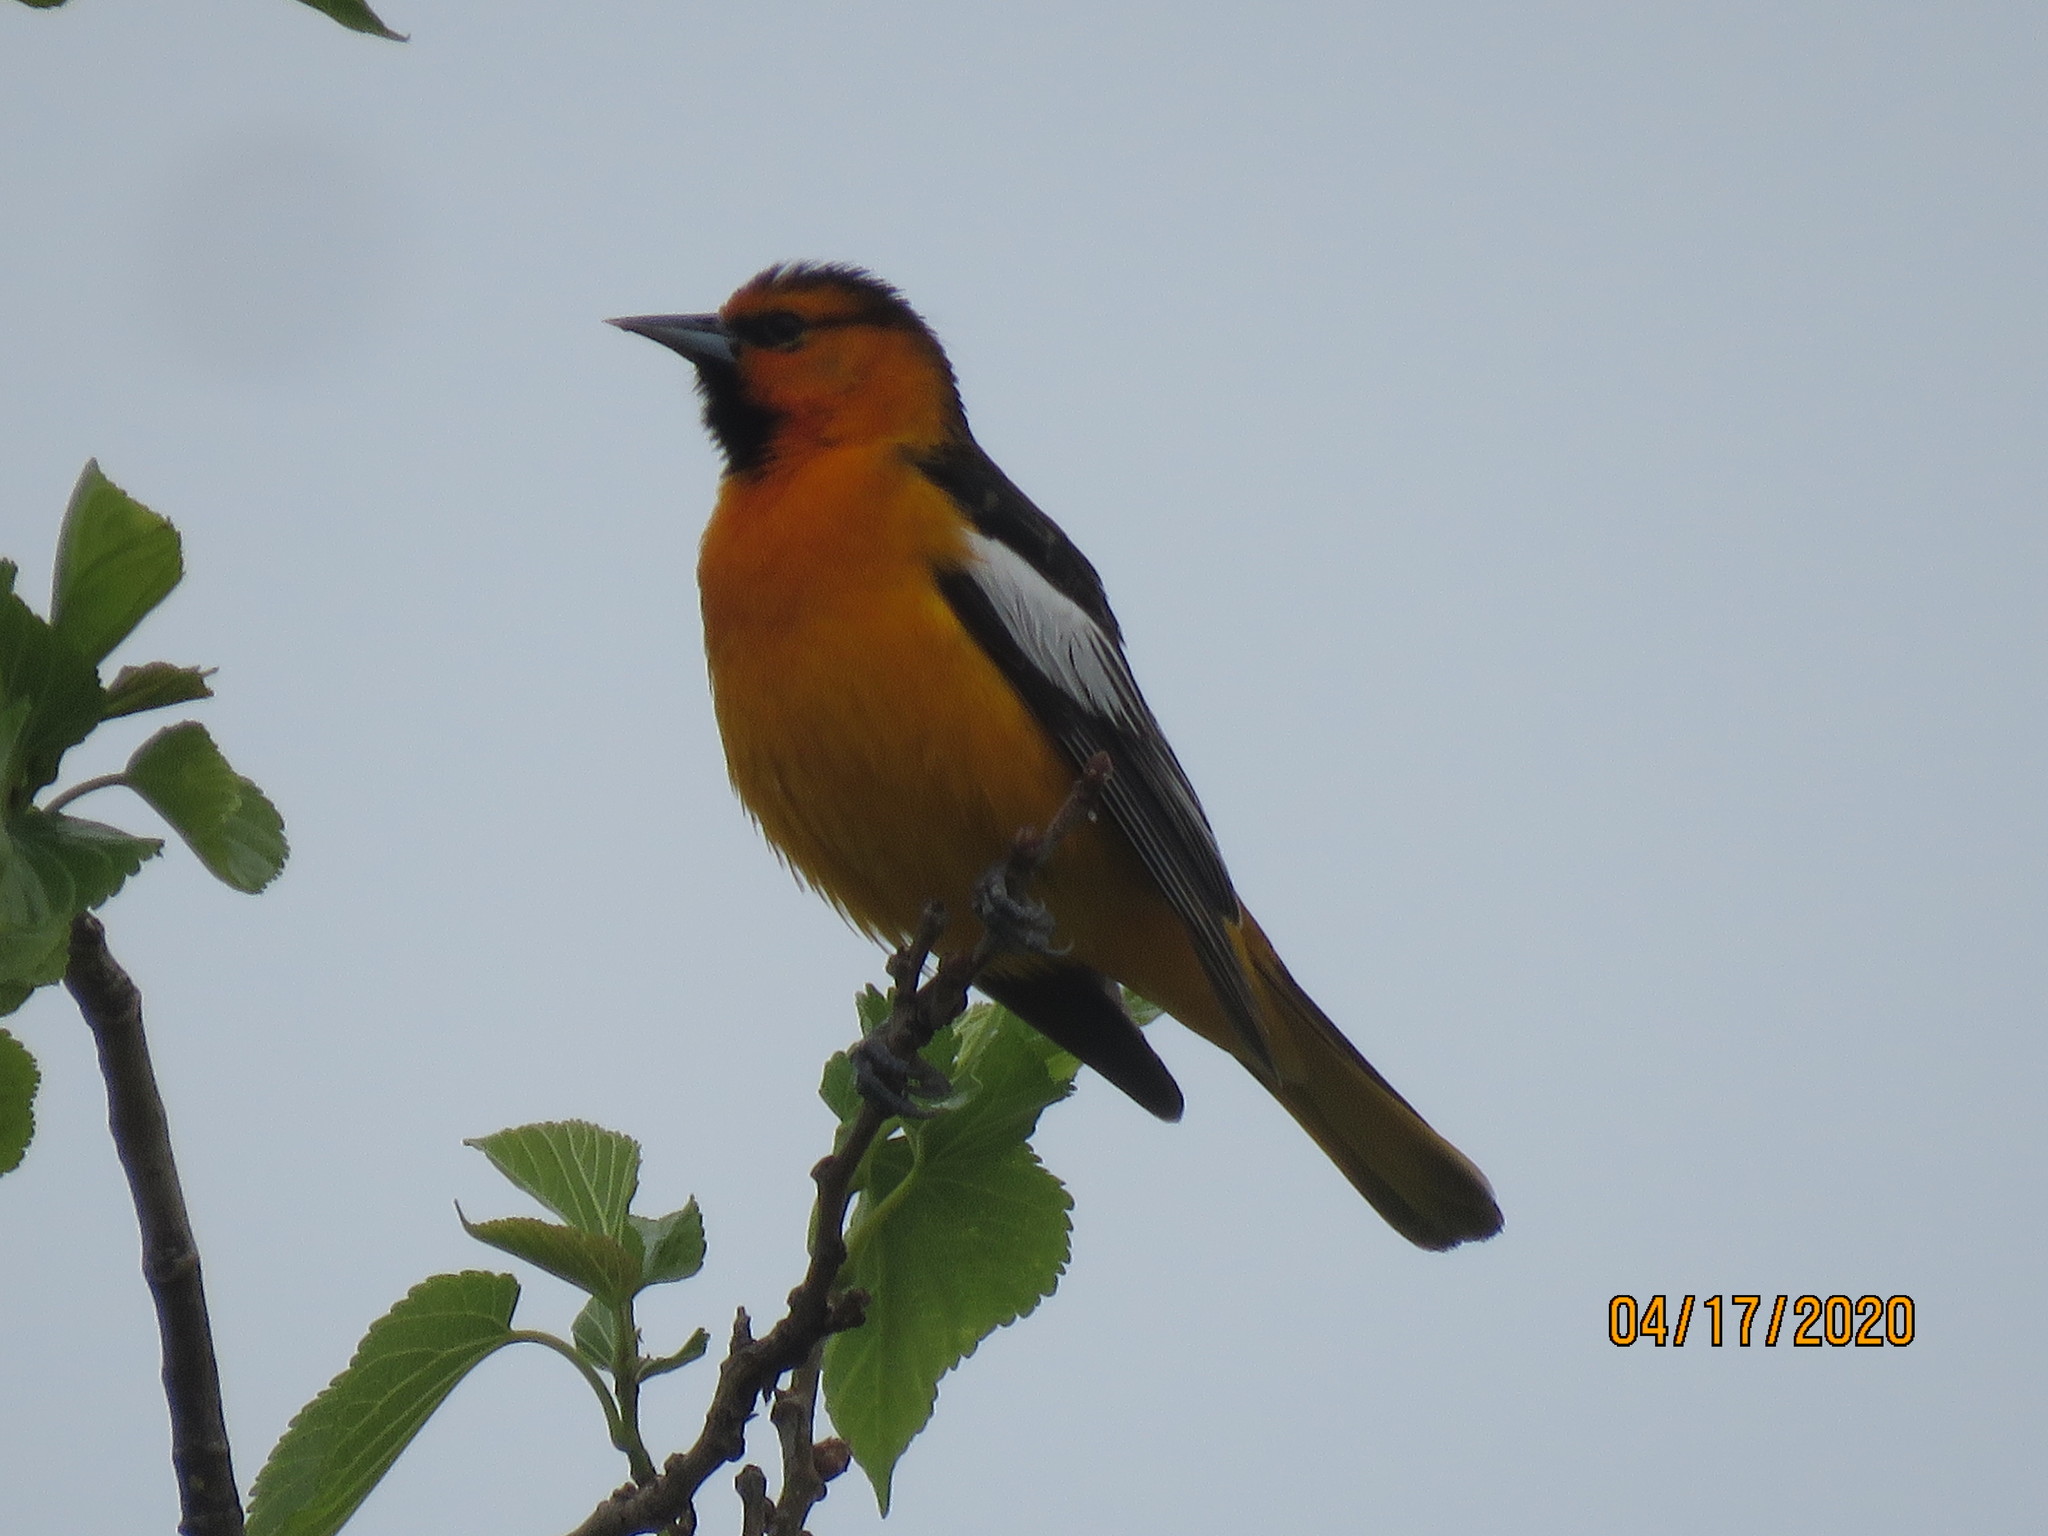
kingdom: Animalia
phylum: Chordata
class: Aves
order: Passeriformes
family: Icteridae
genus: Icterus
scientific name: Icterus bullockii
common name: Bullock's oriole
